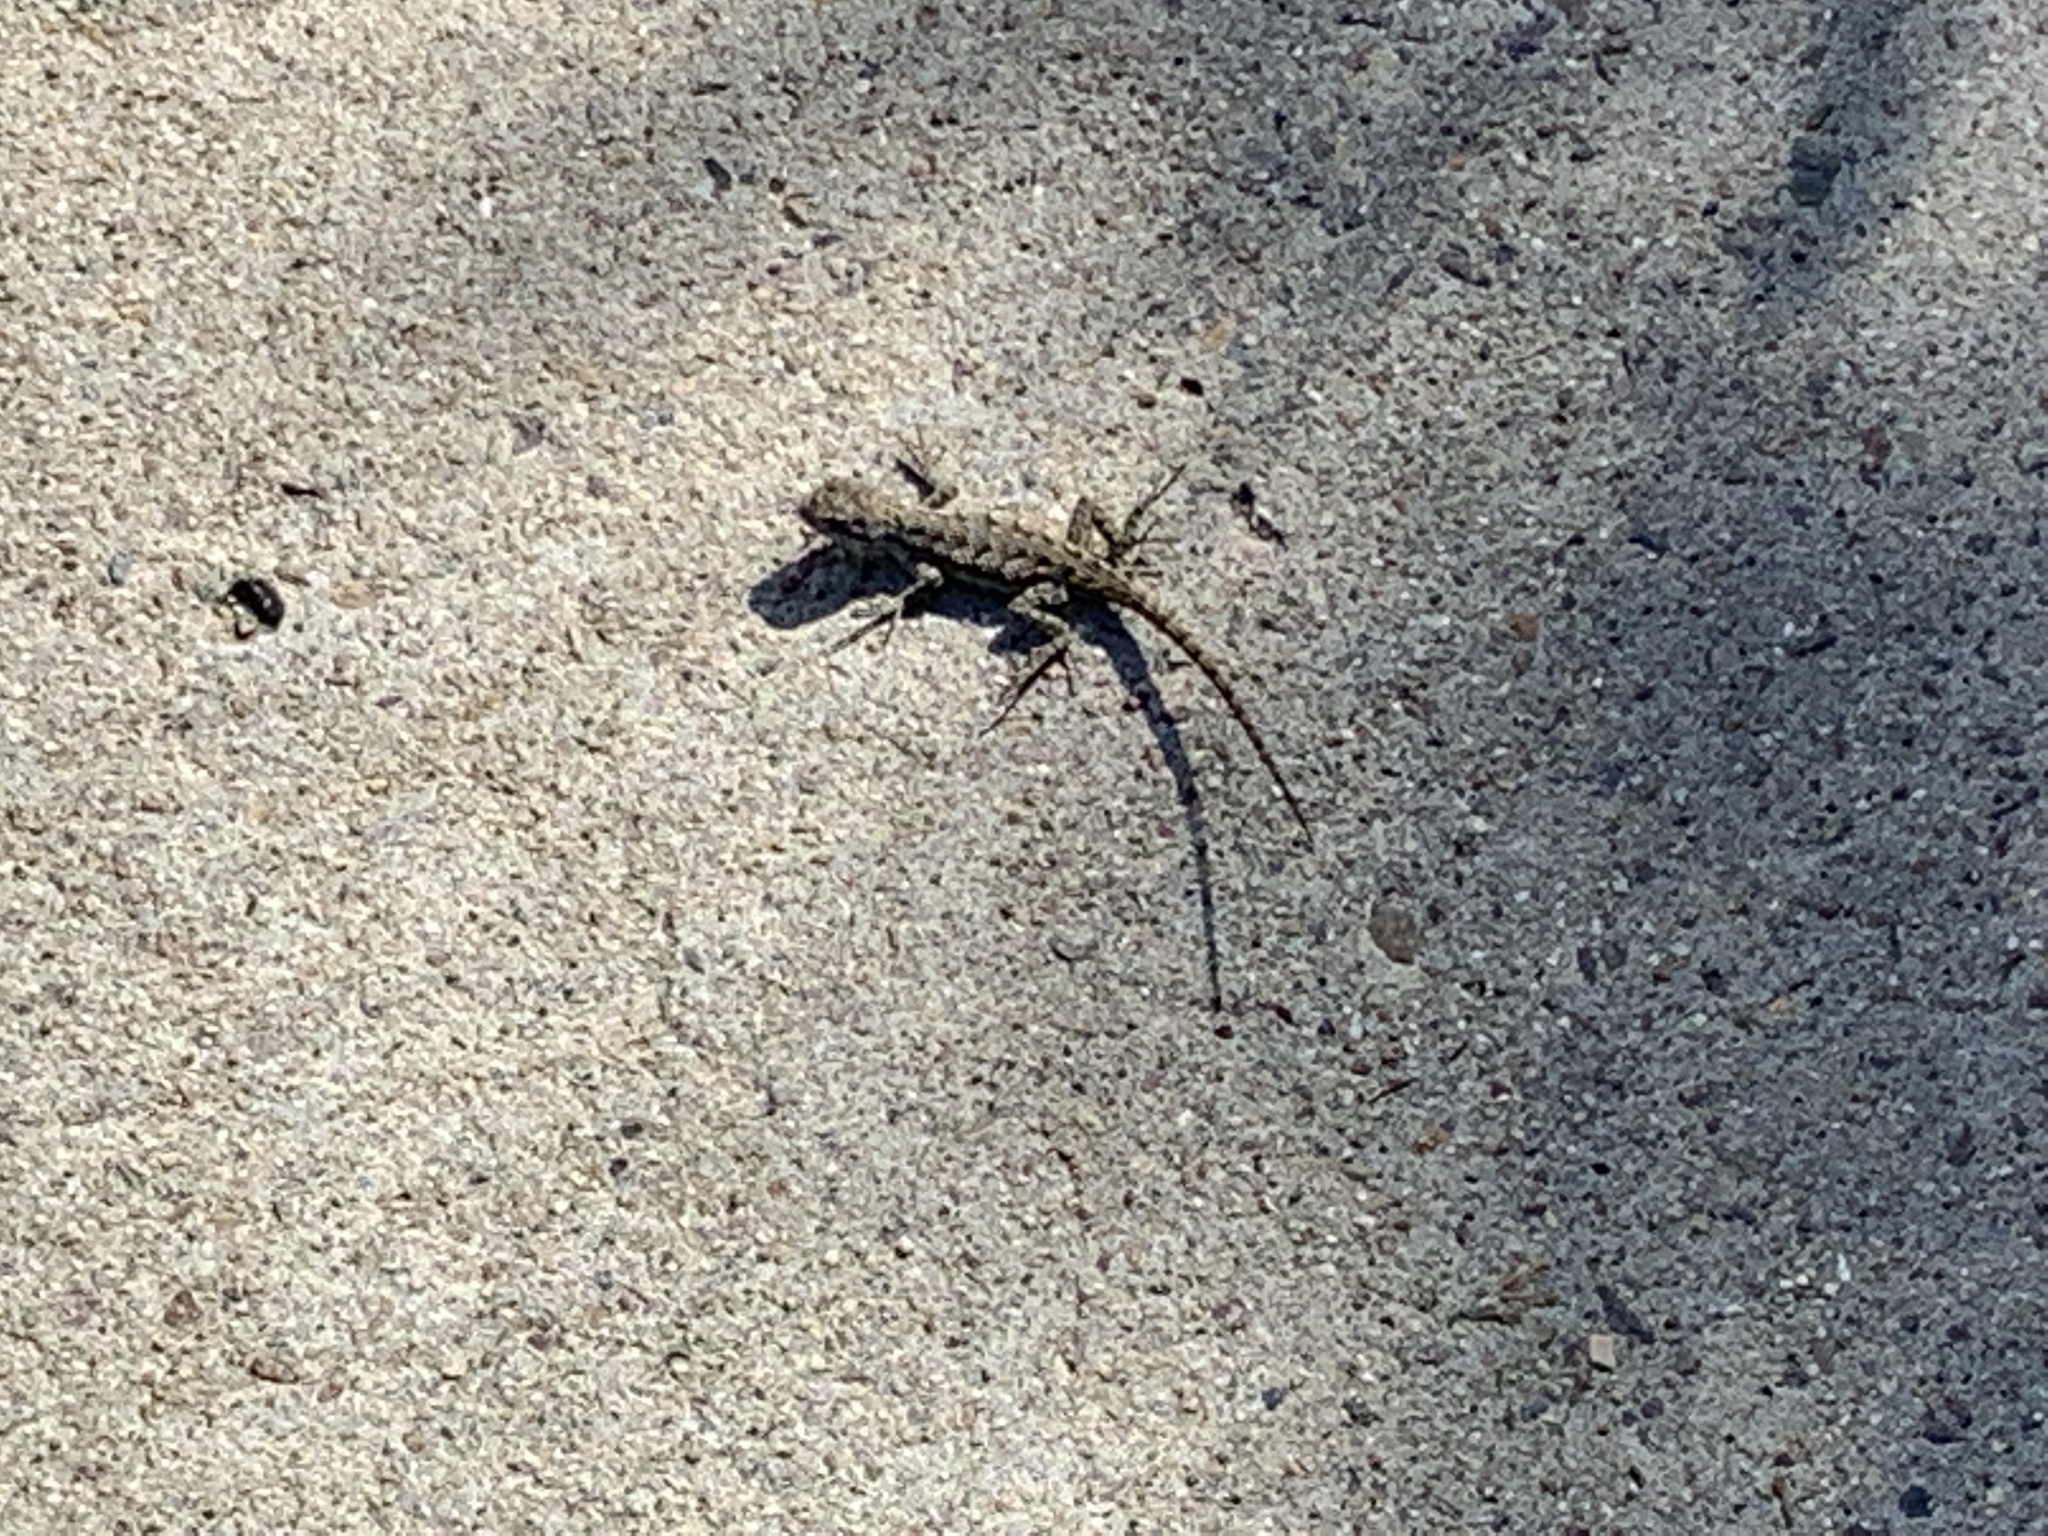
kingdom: Animalia
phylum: Chordata
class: Squamata
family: Phrynosomatidae
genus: Sceloporus
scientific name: Sceloporus occidentalis
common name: Western fence lizard
